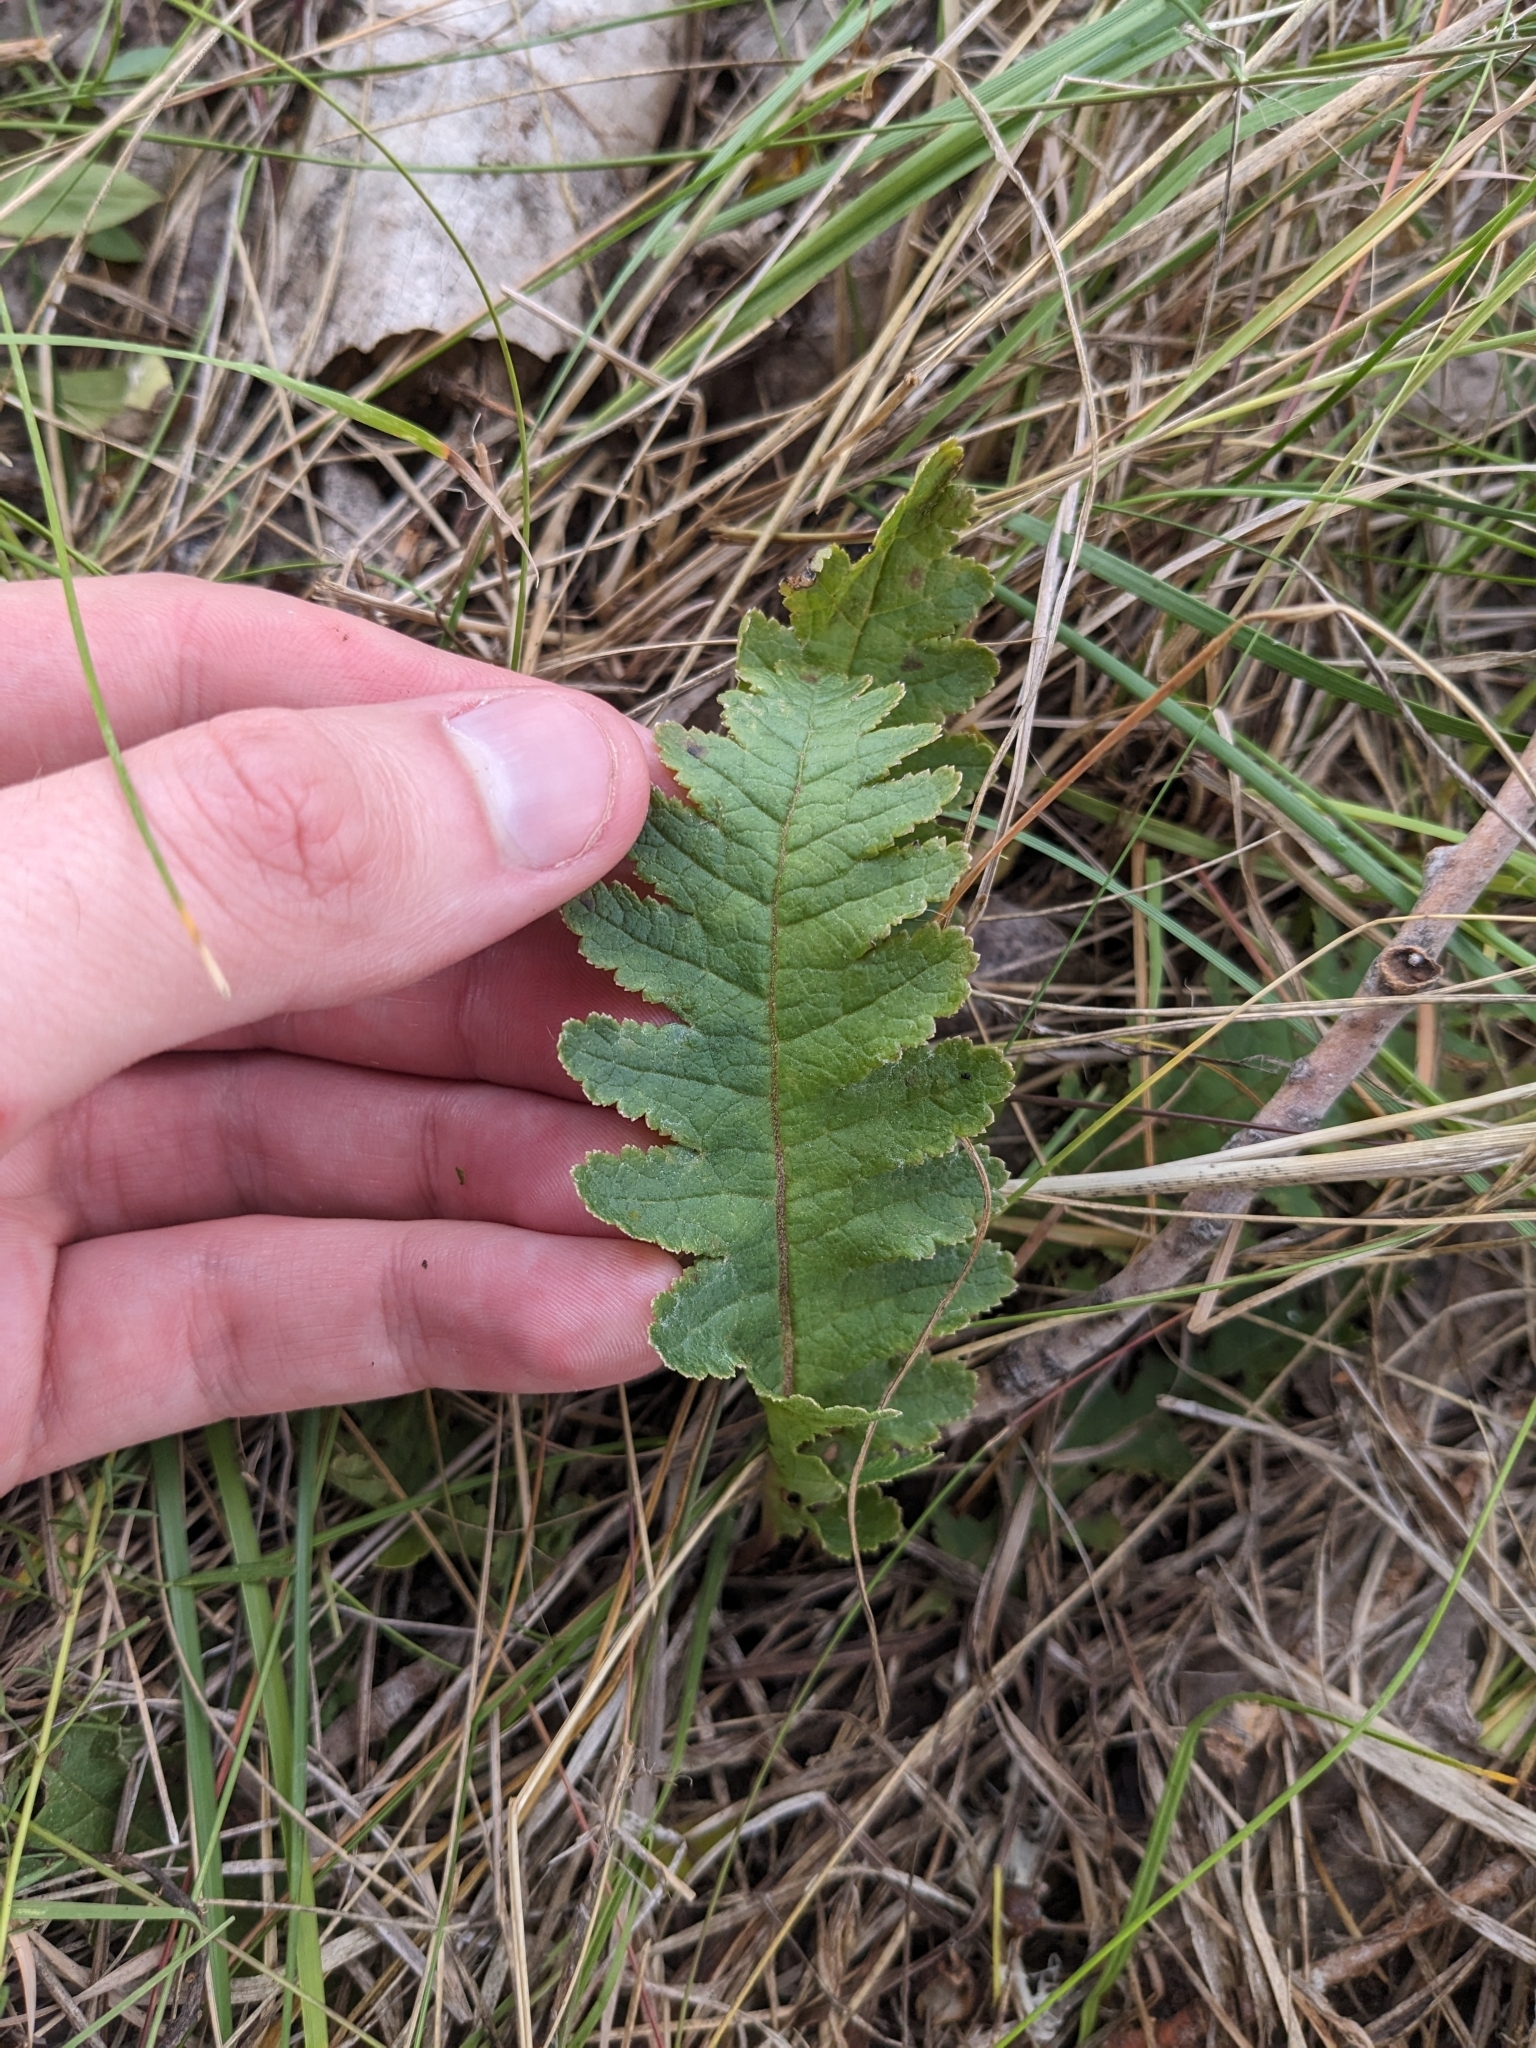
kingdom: Plantae
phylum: Tracheophyta
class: Magnoliopsida
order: Lamiales
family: Orobanchaceae
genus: Pedicularis
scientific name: Pedicularis canadensis
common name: Early lousewort
